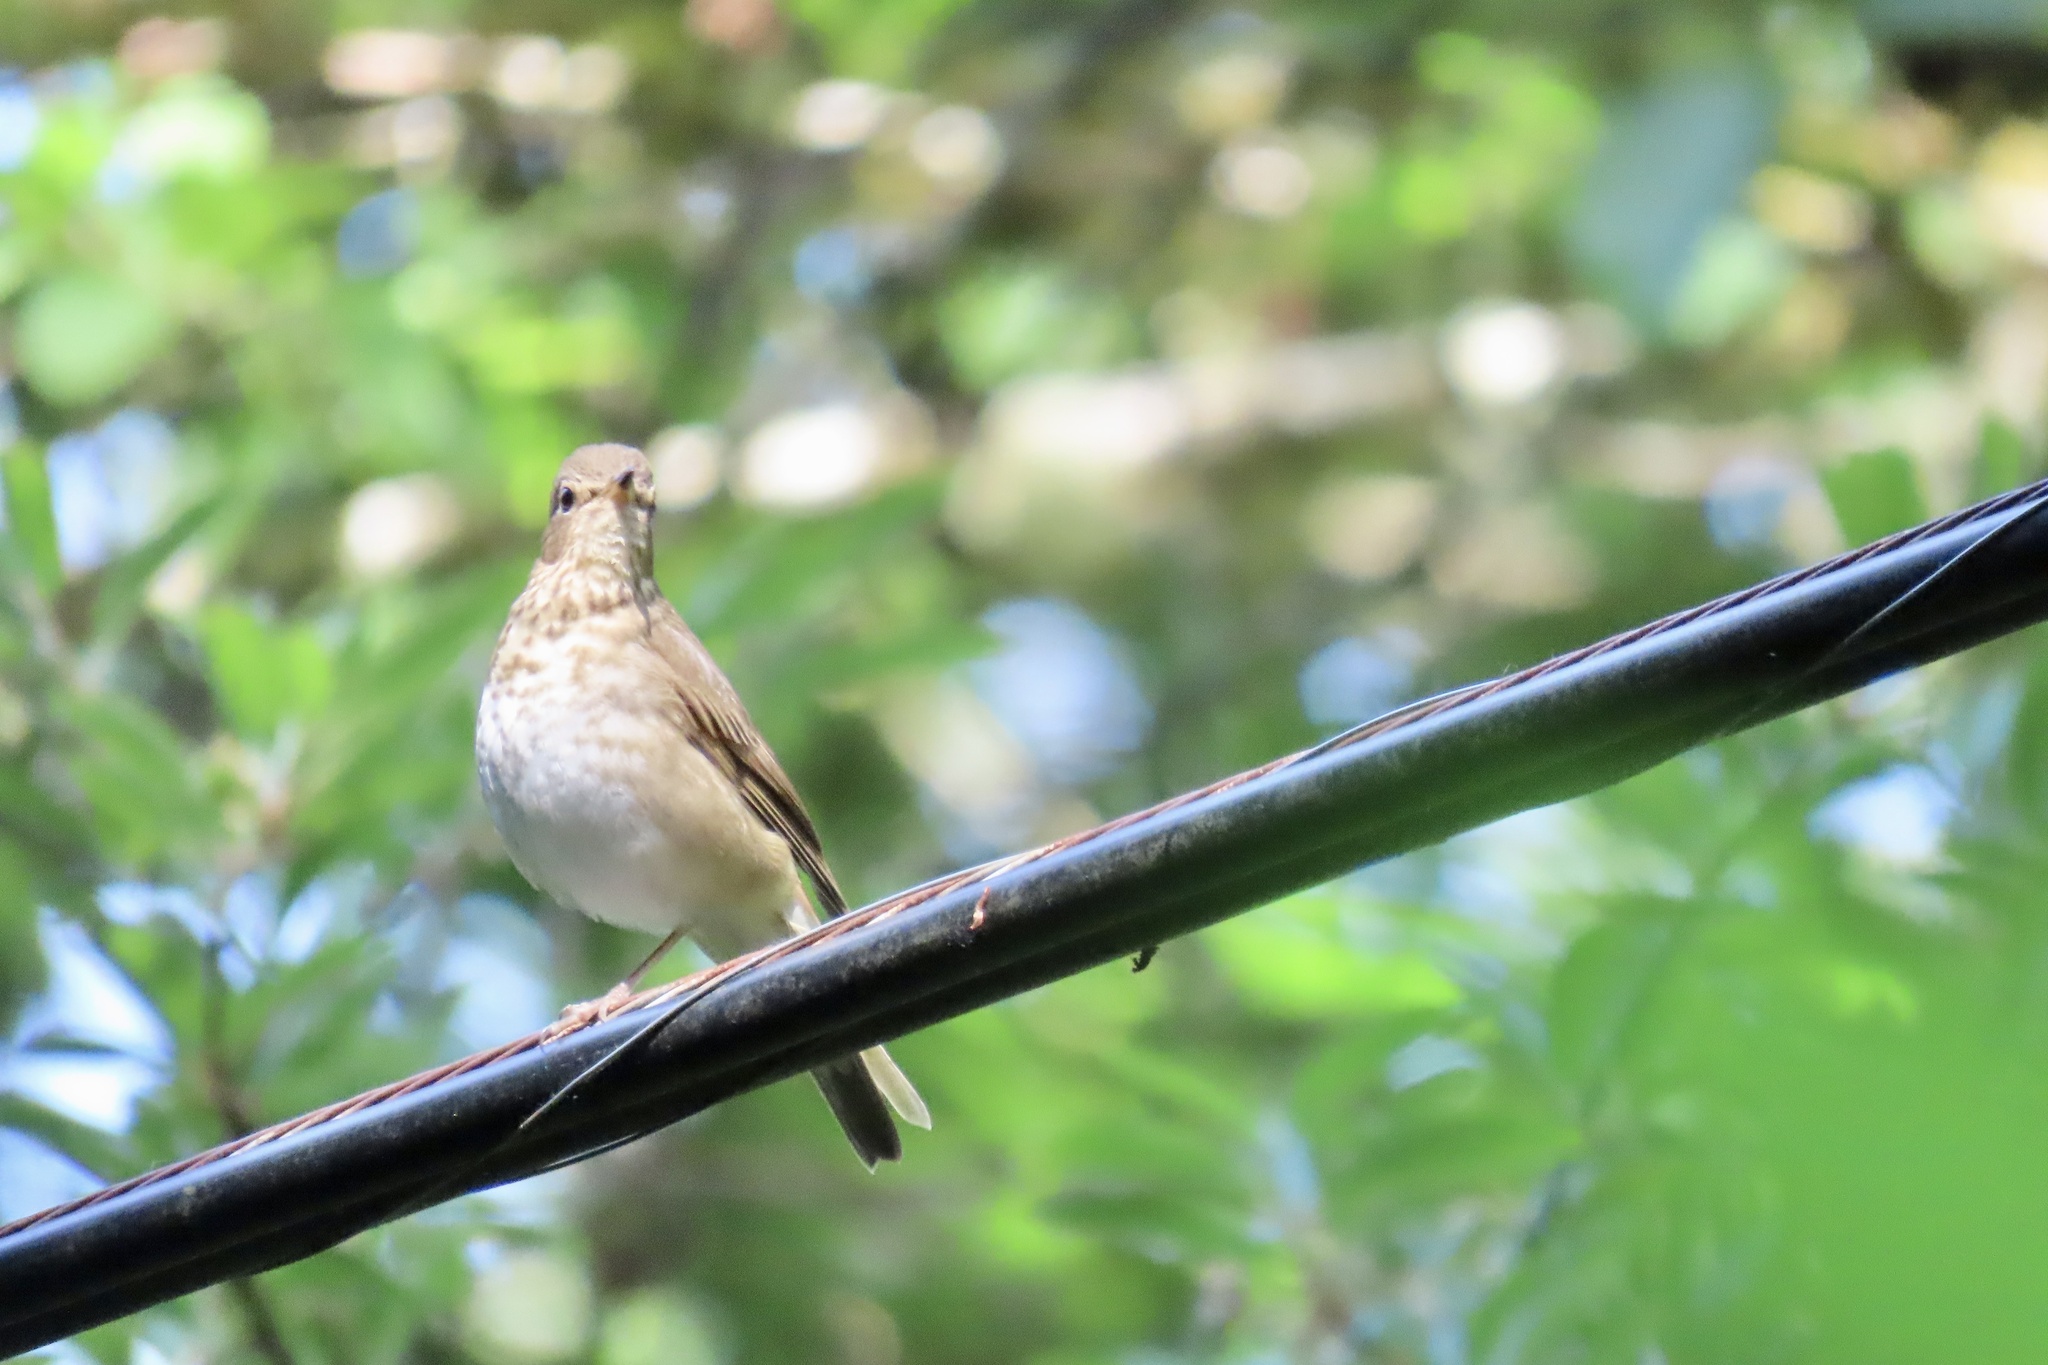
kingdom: Animalia
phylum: Chordata
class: Aves
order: Passeriformes
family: Turdidae
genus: Catharus
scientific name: Catharus ustulatus
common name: Swainson's thrush
